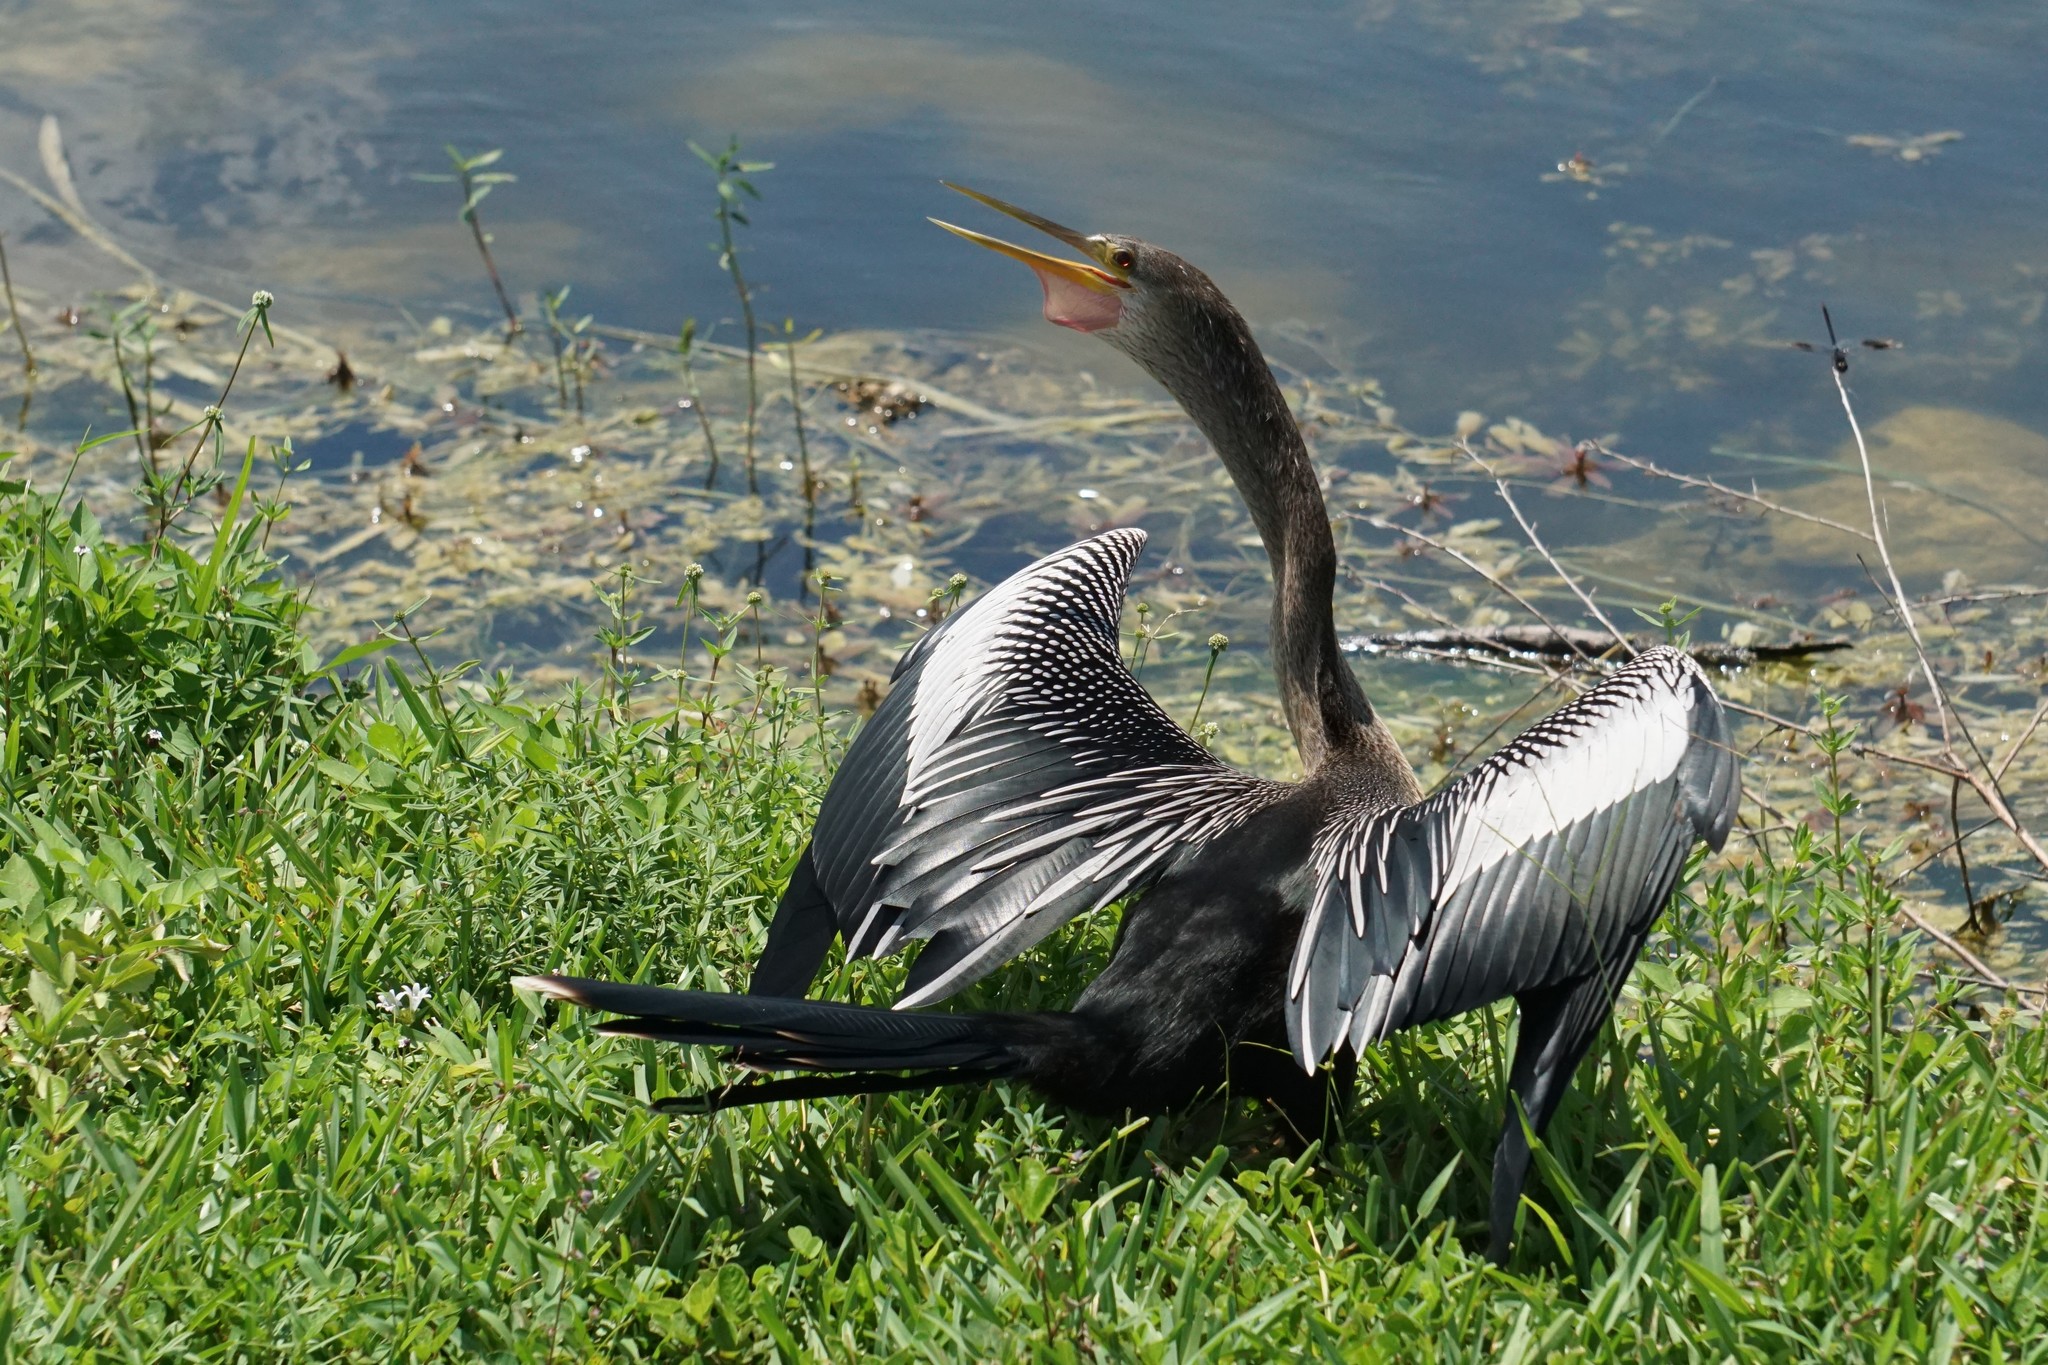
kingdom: Animalia
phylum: Chordata
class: Aves
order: Suliformes
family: Anhingidae
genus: Anhinga
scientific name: Anhinga anhinga
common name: Anhinga
